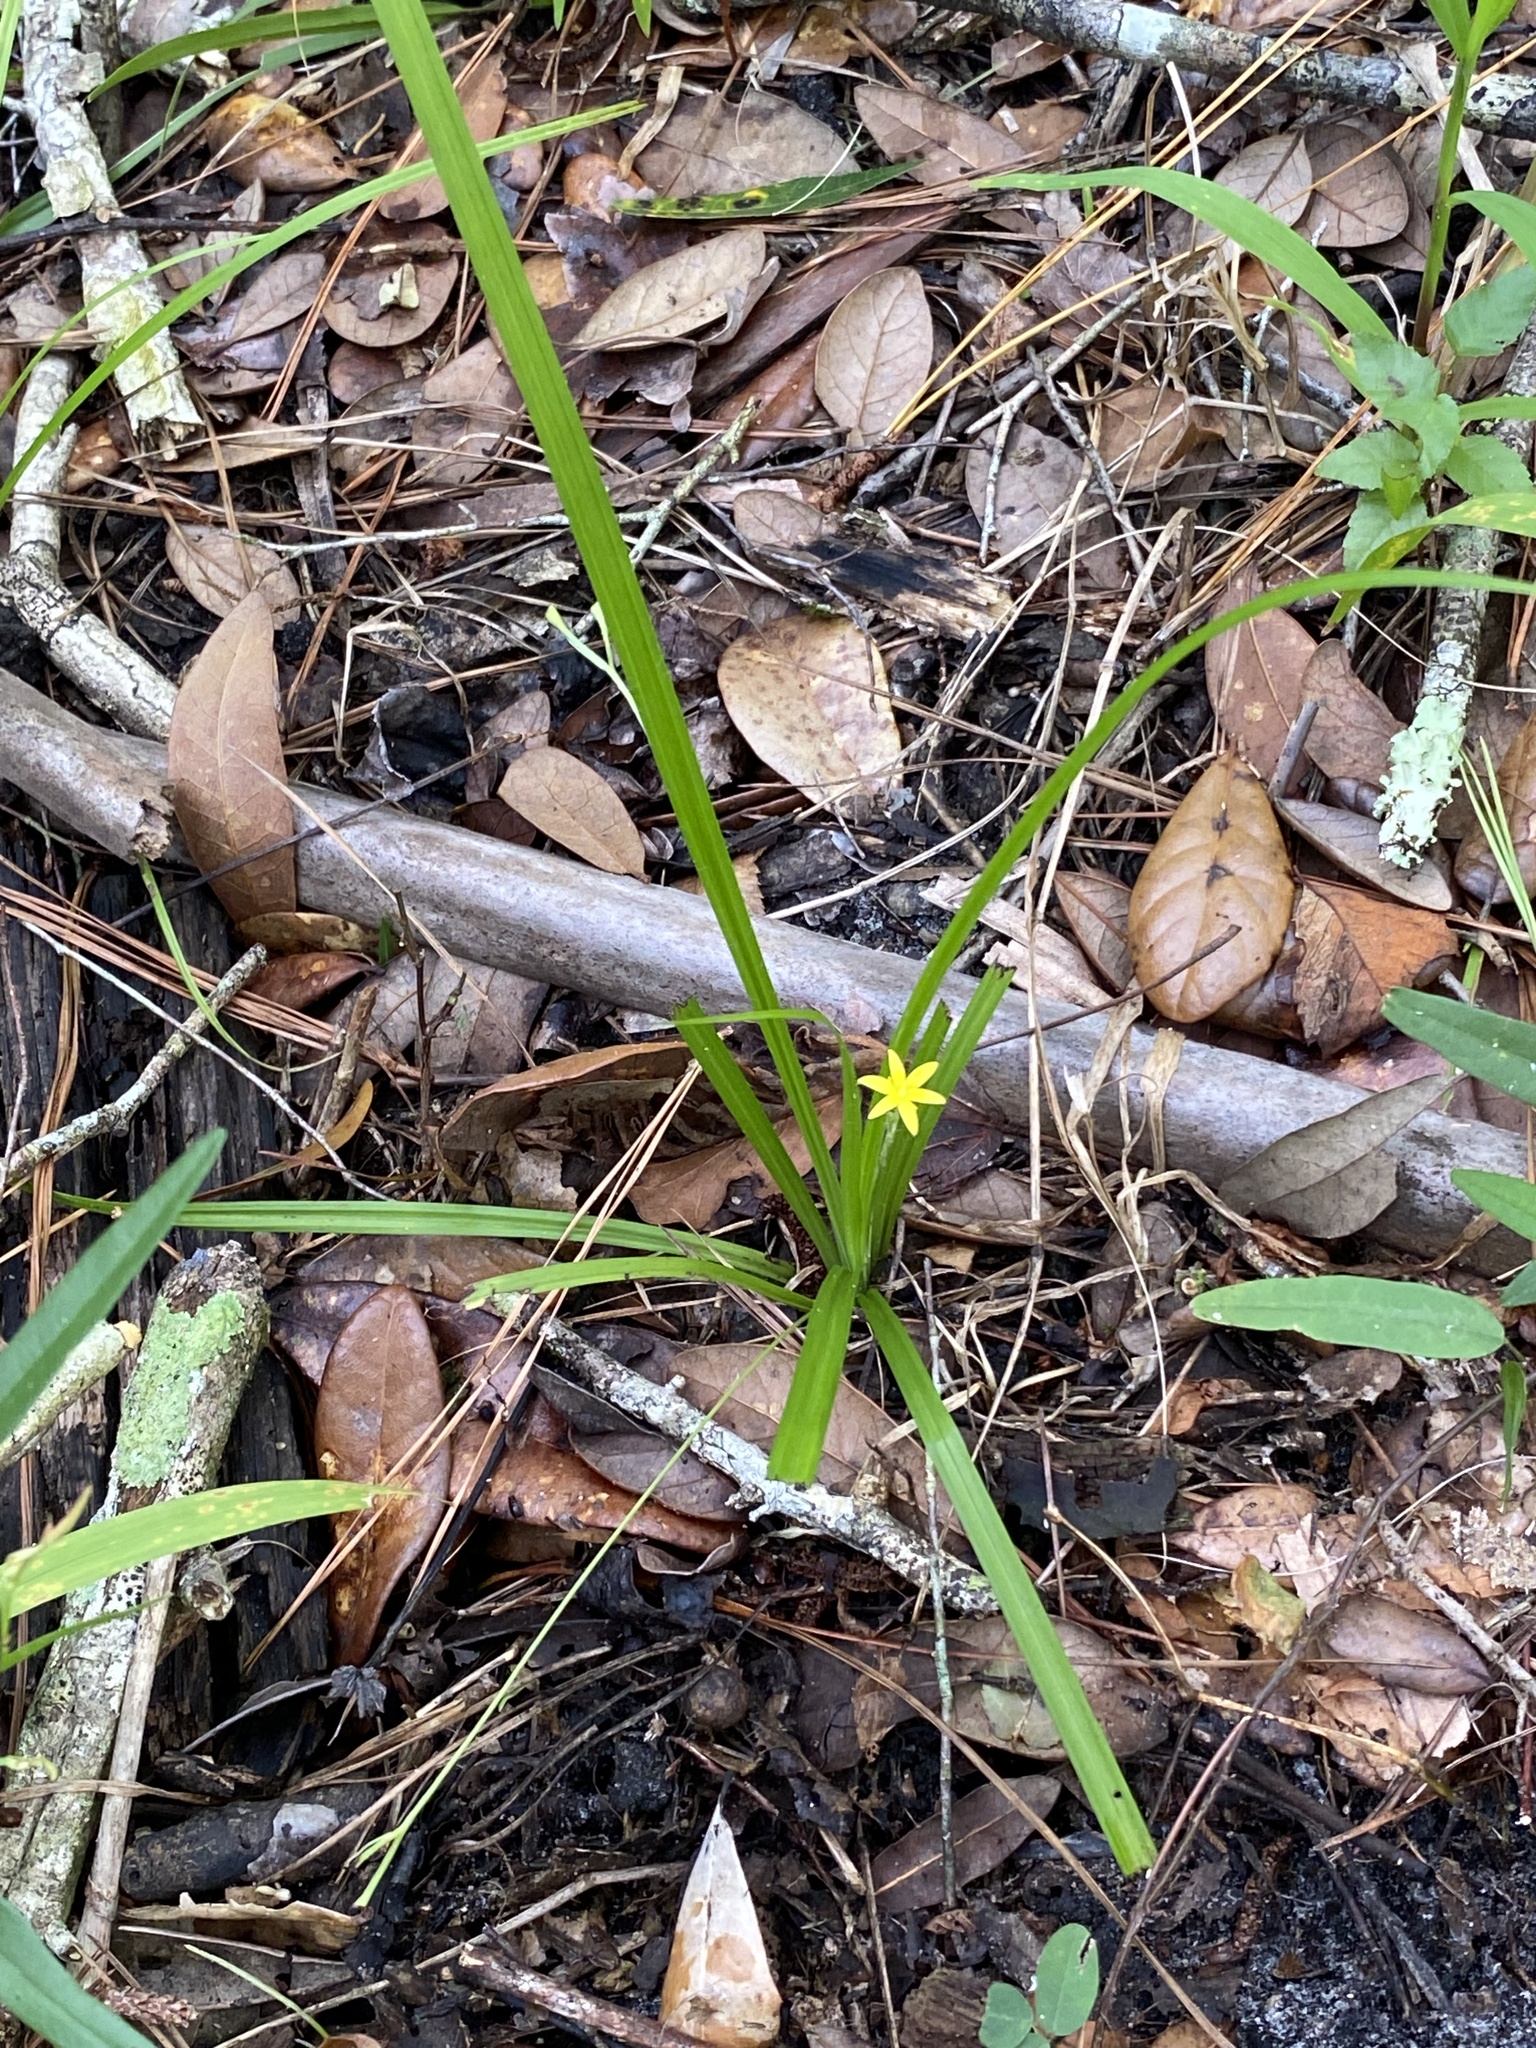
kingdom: Plantae
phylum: Tracheophyta
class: Liliopsida
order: Asparagales
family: Hypoxidaceae
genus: Hypoxis
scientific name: Hypoxis curtissii
